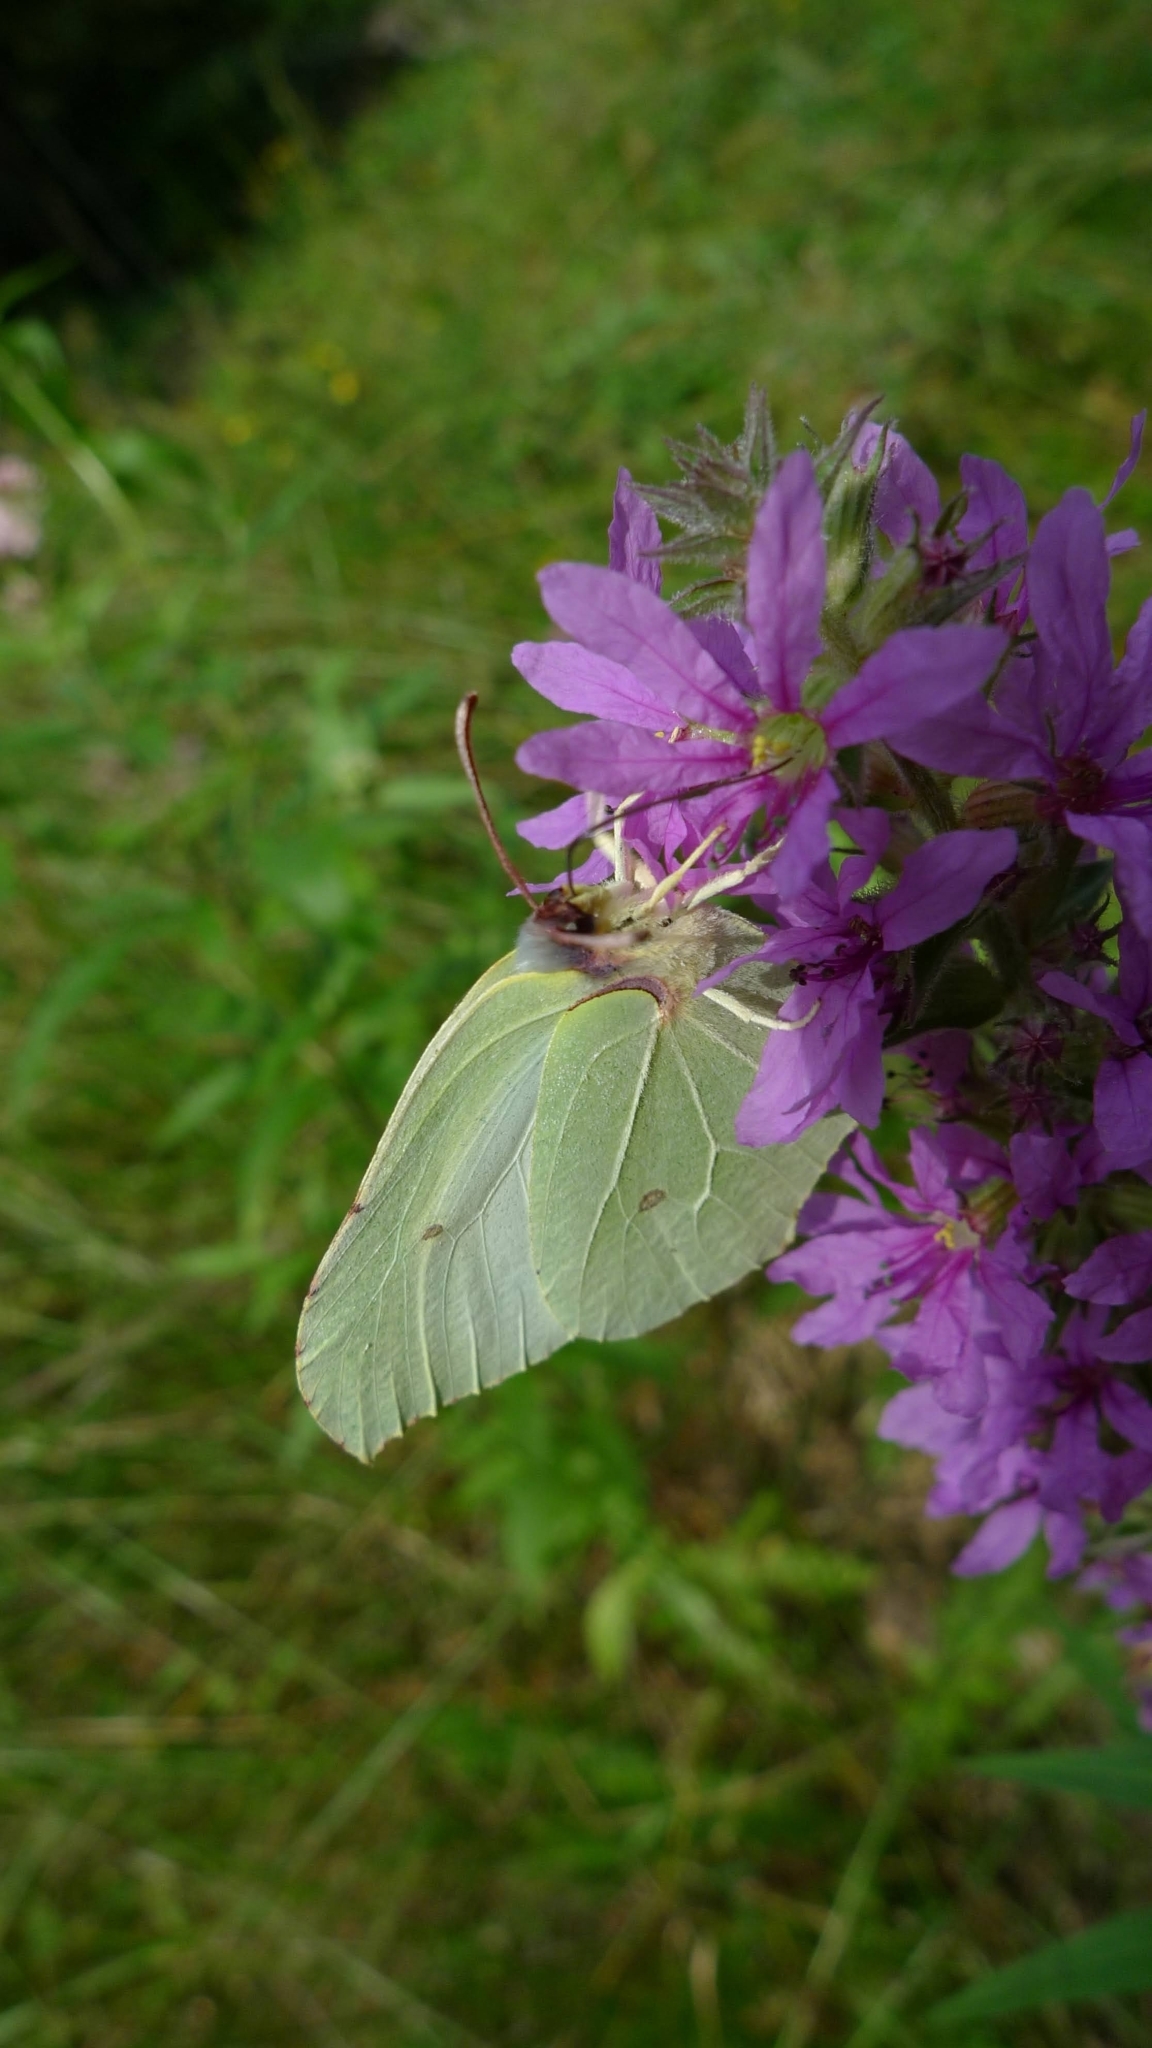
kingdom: Animalia
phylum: Arthropoda
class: Insecta
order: Lepidoptera
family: Pieridae
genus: Gonepteryx
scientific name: Gonepteryx rhamni
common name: Brimstone
